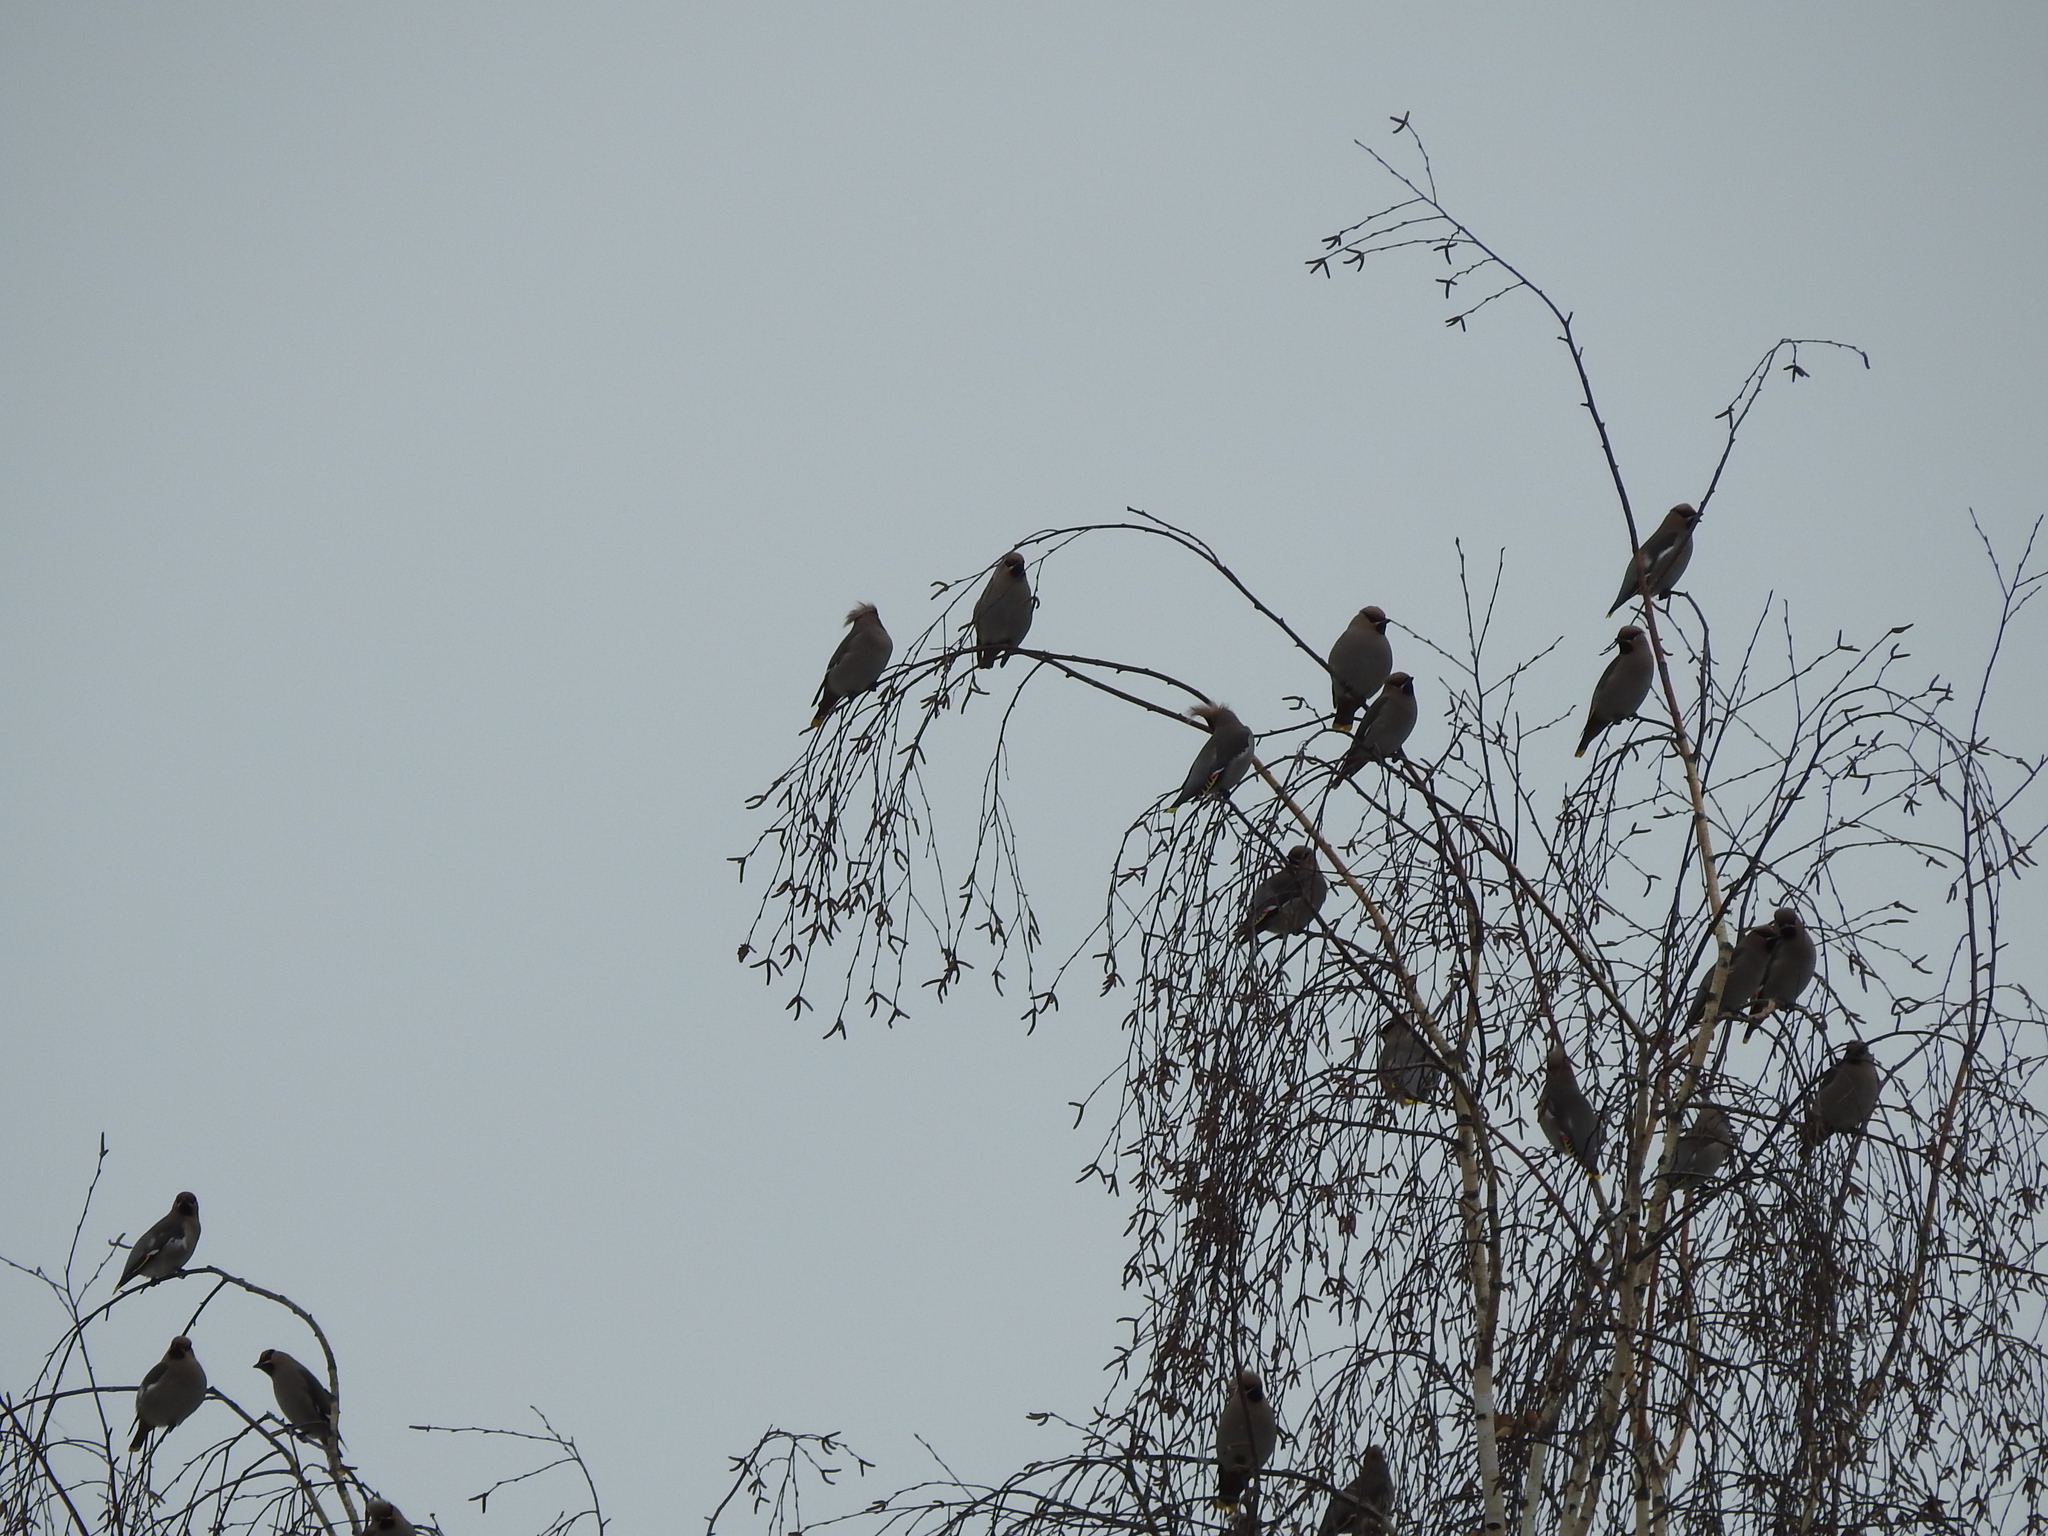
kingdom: Animalia
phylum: Chordata
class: Aves
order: Passeriformes
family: Bombycillidae
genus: Bombycilla
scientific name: Bombycilla garrulus
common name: Bohemian waxwing
